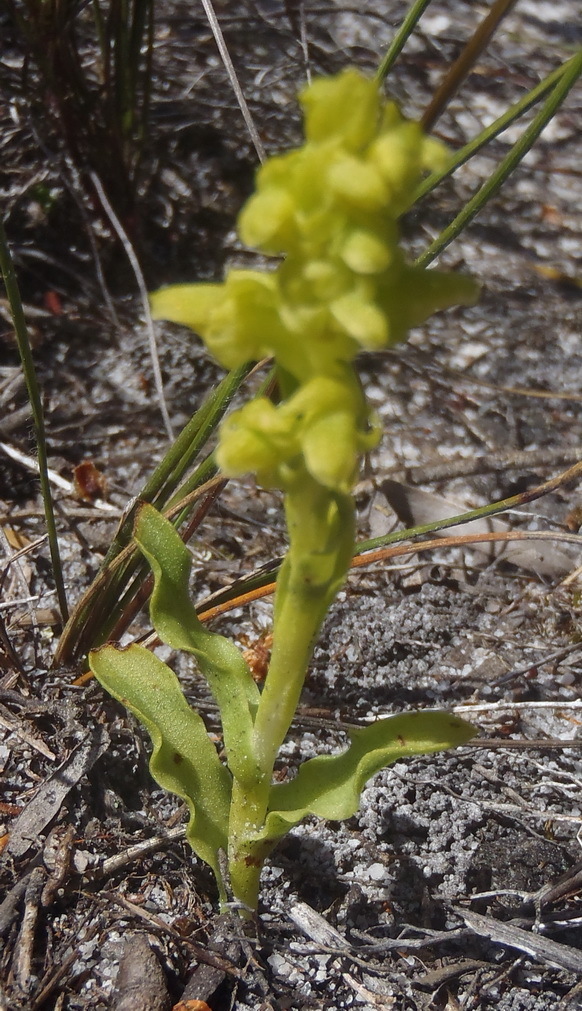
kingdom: Plantae
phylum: Tracheophyta
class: Liliopsida
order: Asparagales
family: Orchidaceae
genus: Disa
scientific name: Disa cylindrica
